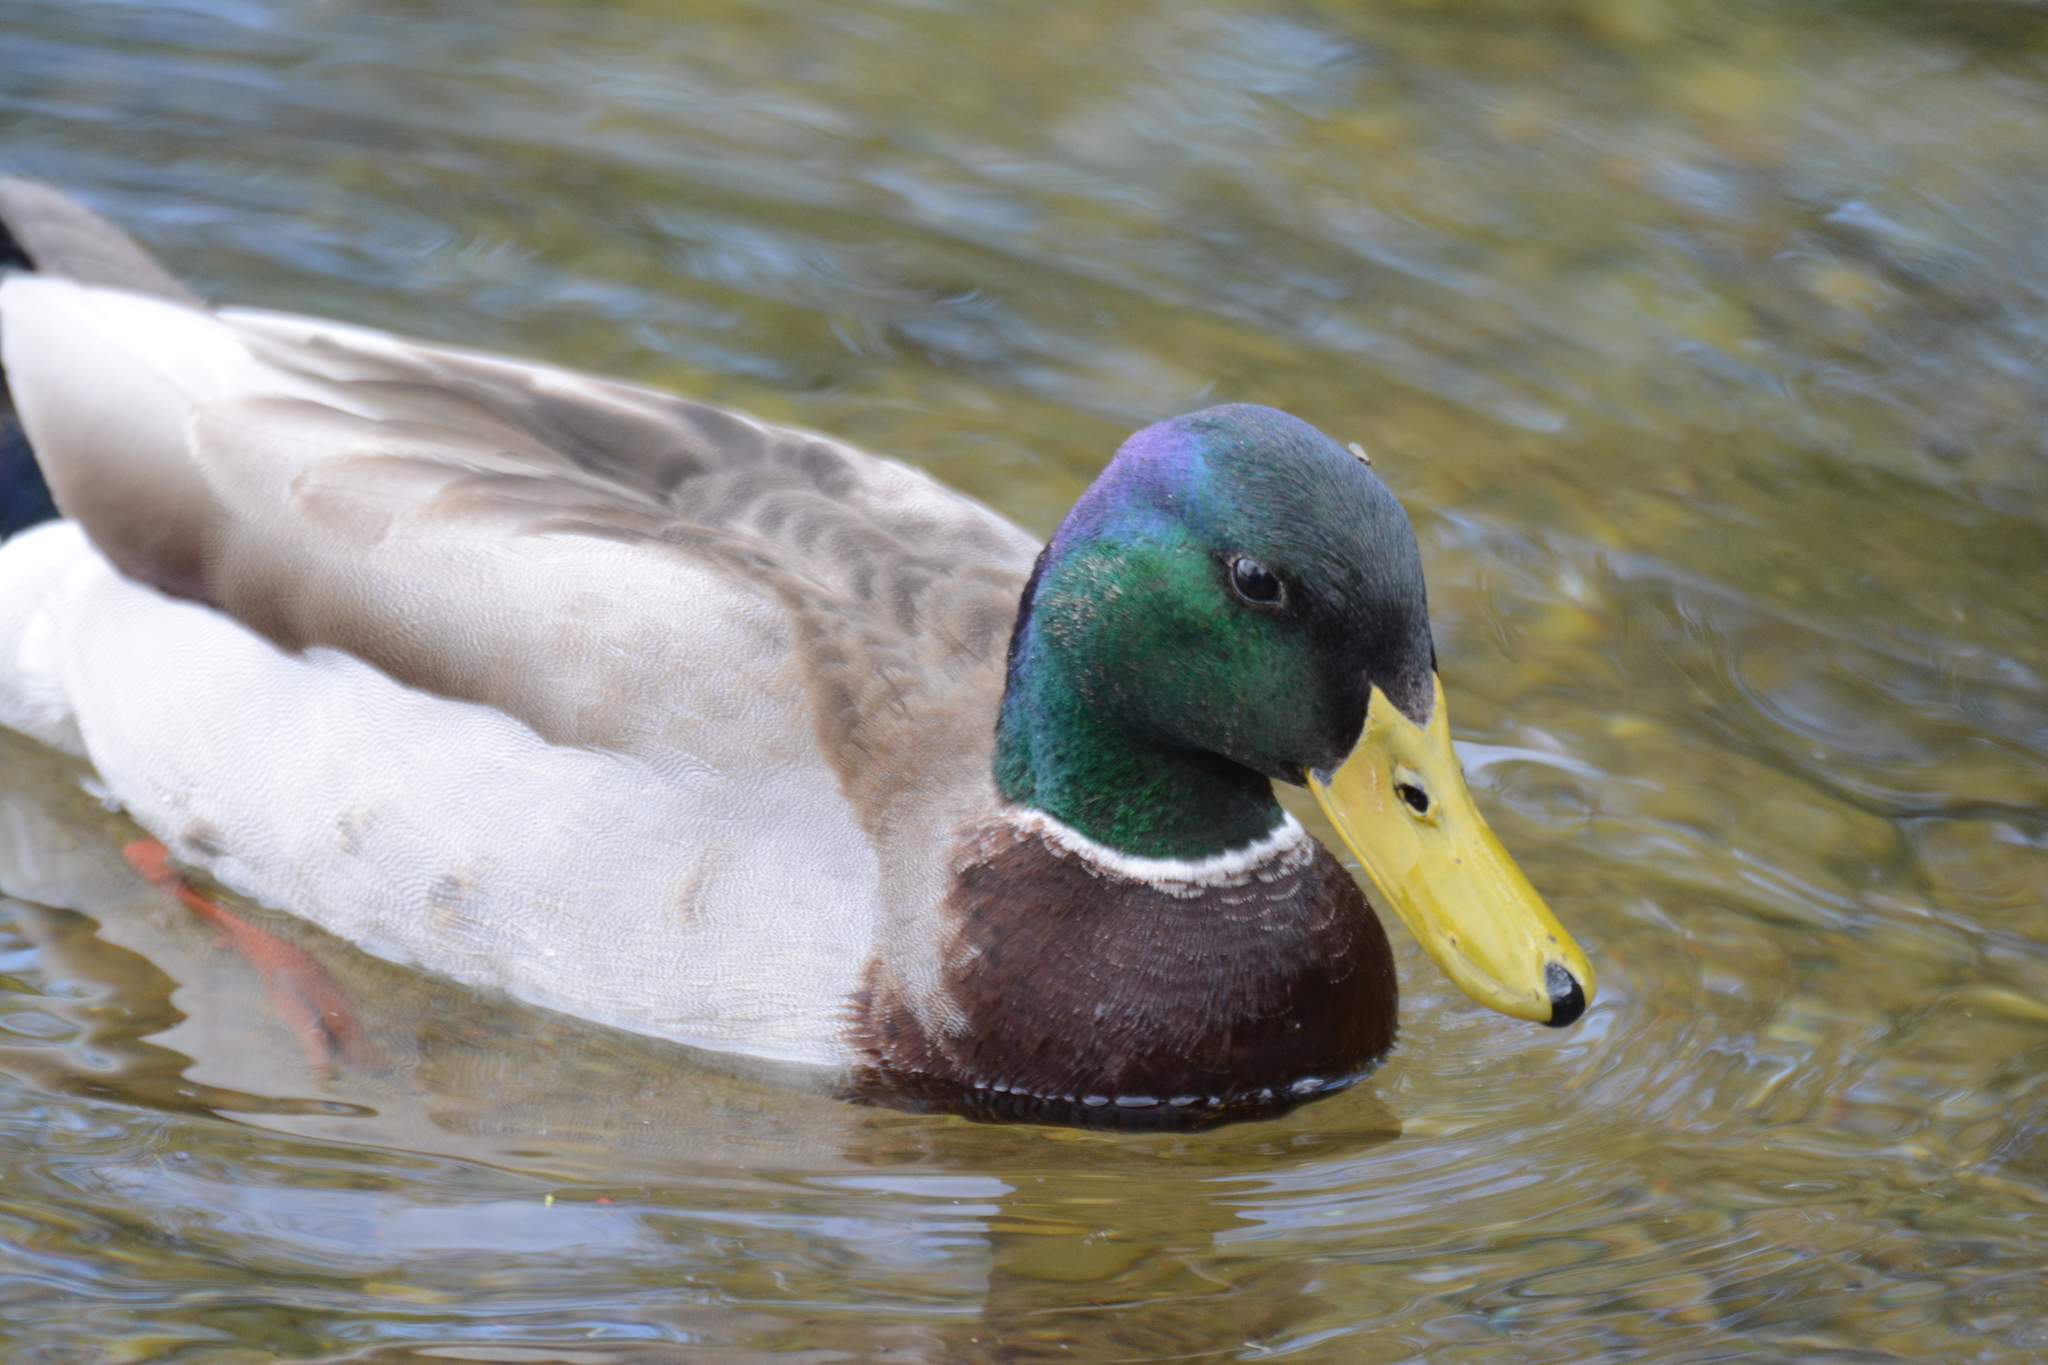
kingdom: Animalia
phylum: Chordata
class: Aves
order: Anseriformes
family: Anatidae
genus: Anas
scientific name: Anas platyrhynchos
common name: Mallard
